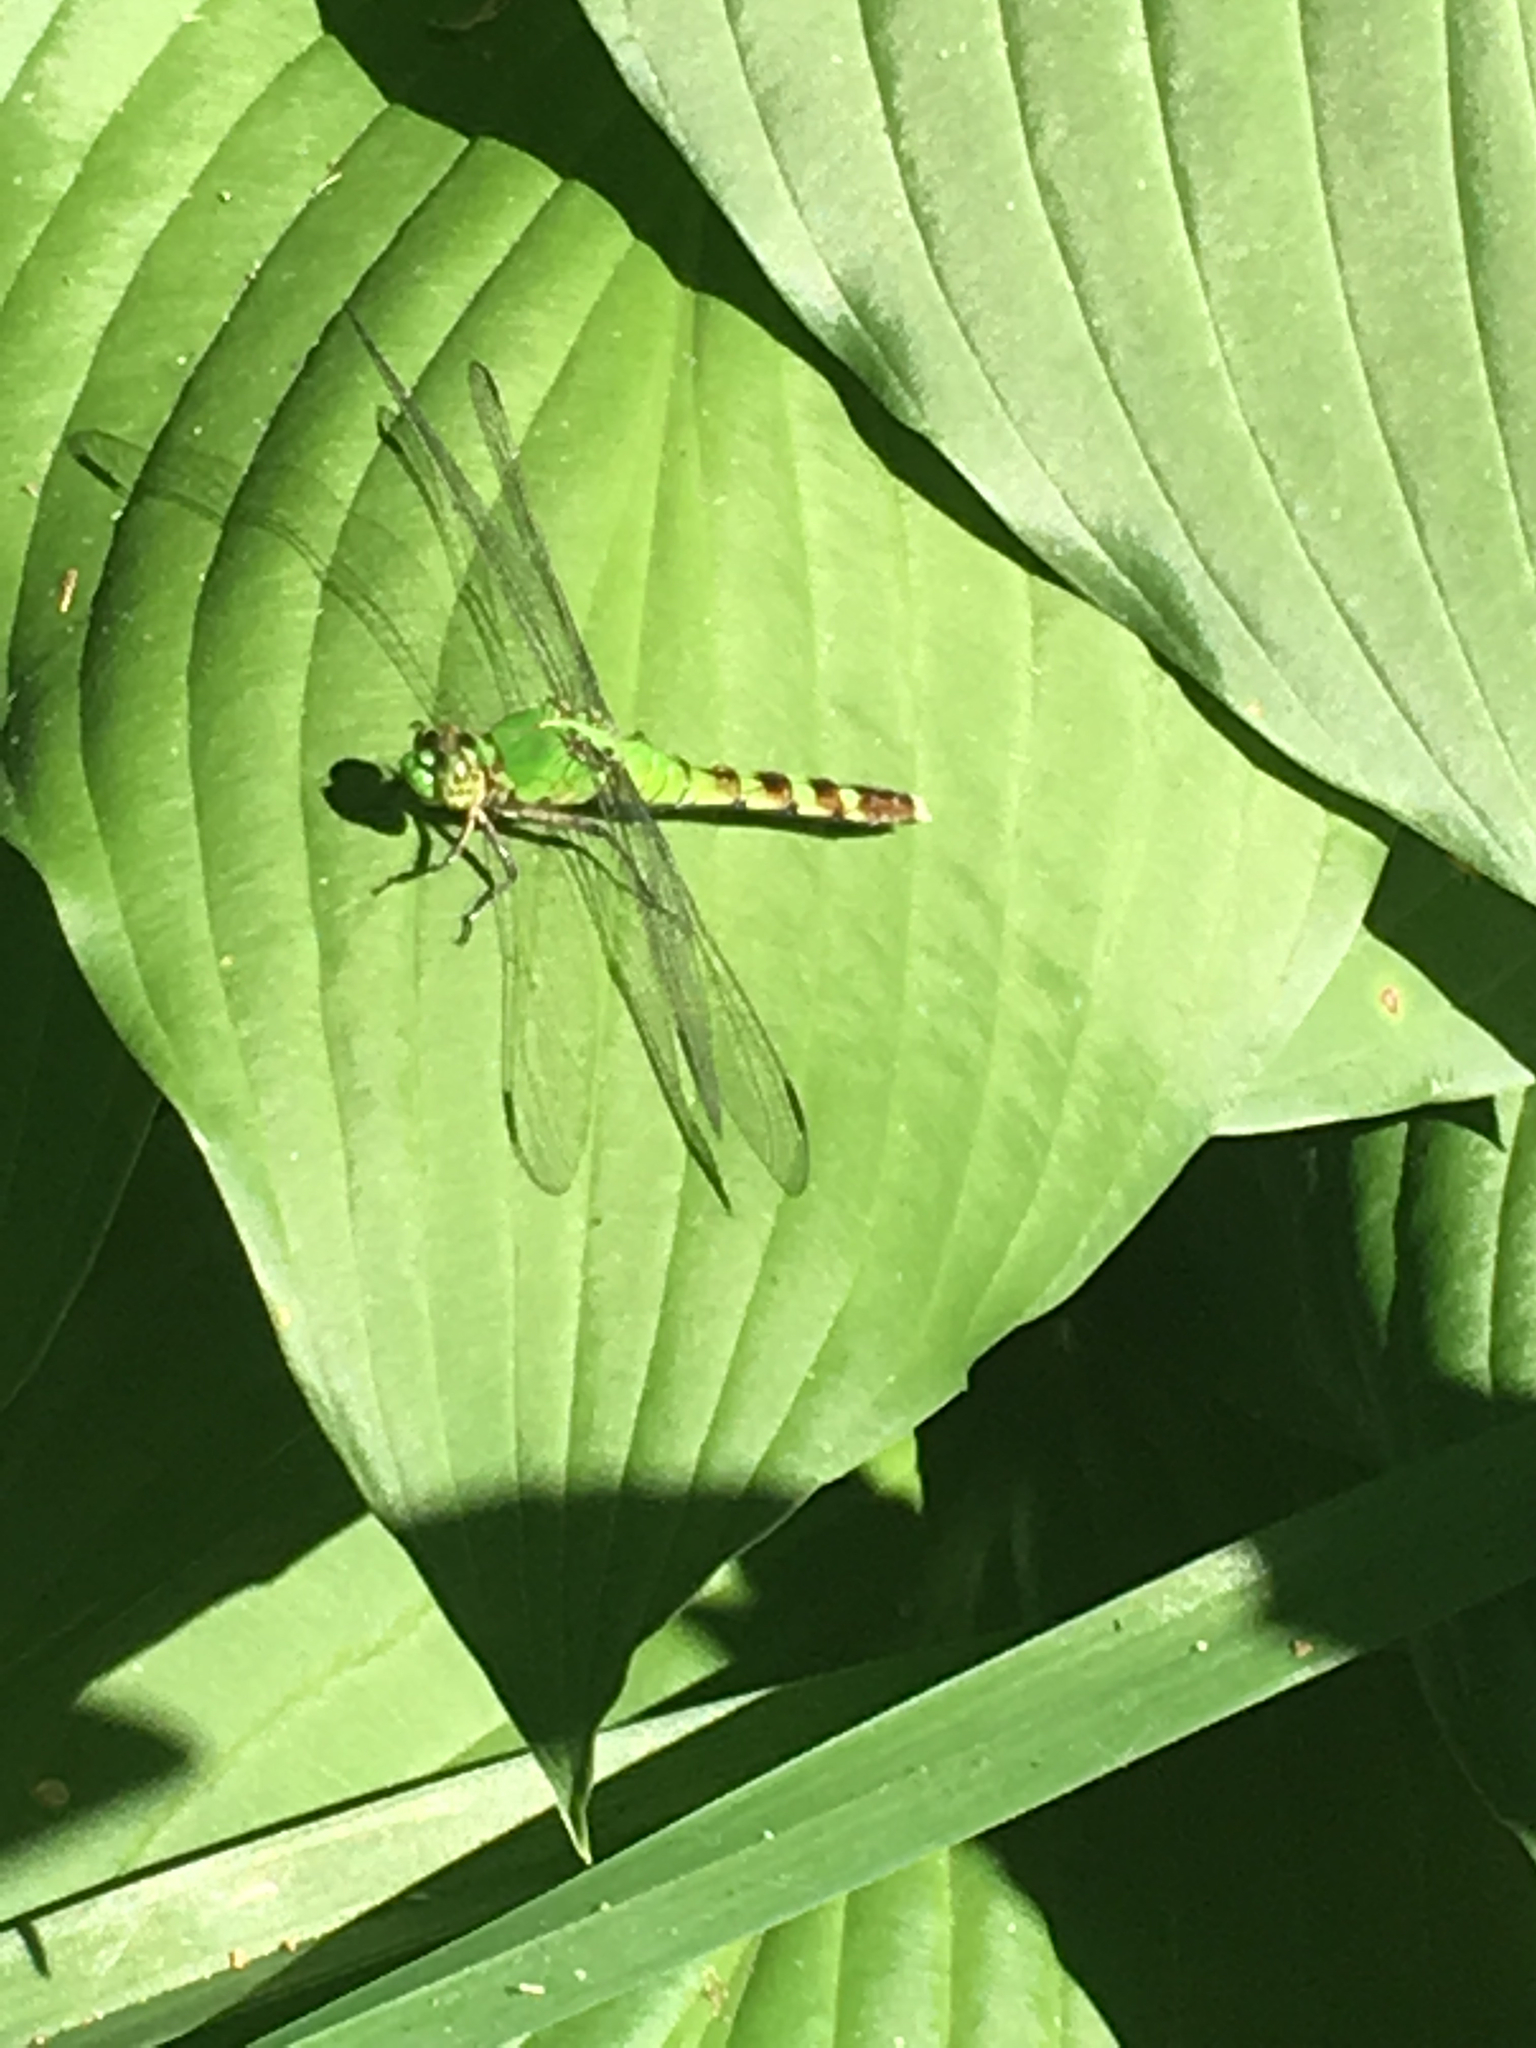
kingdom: Animalia
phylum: Arthropoda
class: Insecta
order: Odonata
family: Libellulidae
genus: Erythemis
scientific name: Erythemis simplicicollis
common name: Eastern pondhawk
